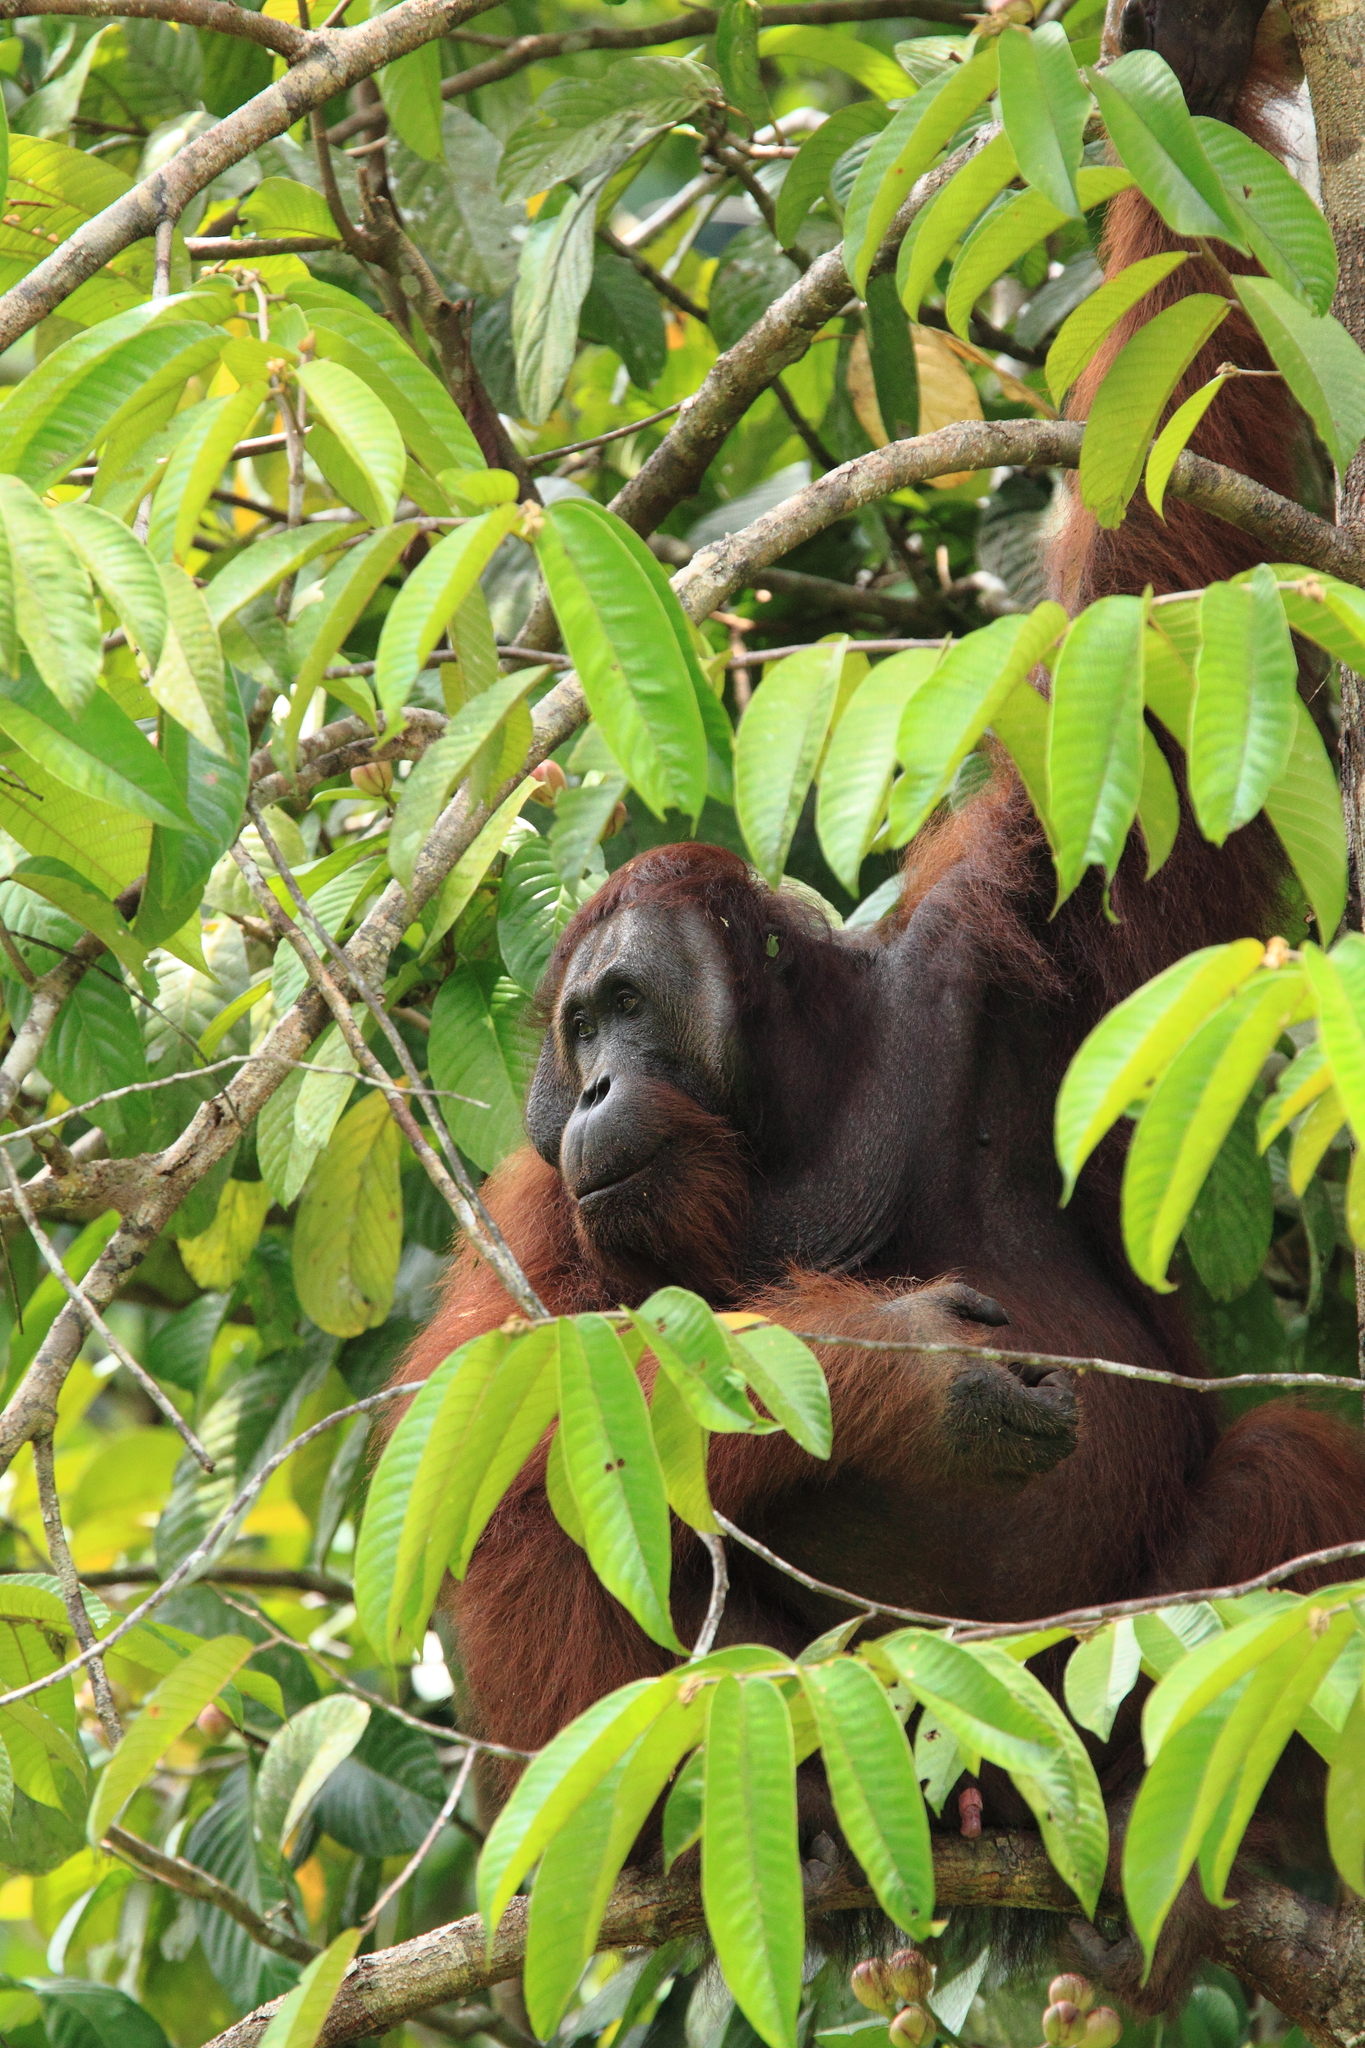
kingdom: Animalia
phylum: Chordata
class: Mammalia
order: Primates
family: Hominidae
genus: Pongo
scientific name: Pongo pygmaeus
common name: Bornean orangutan
